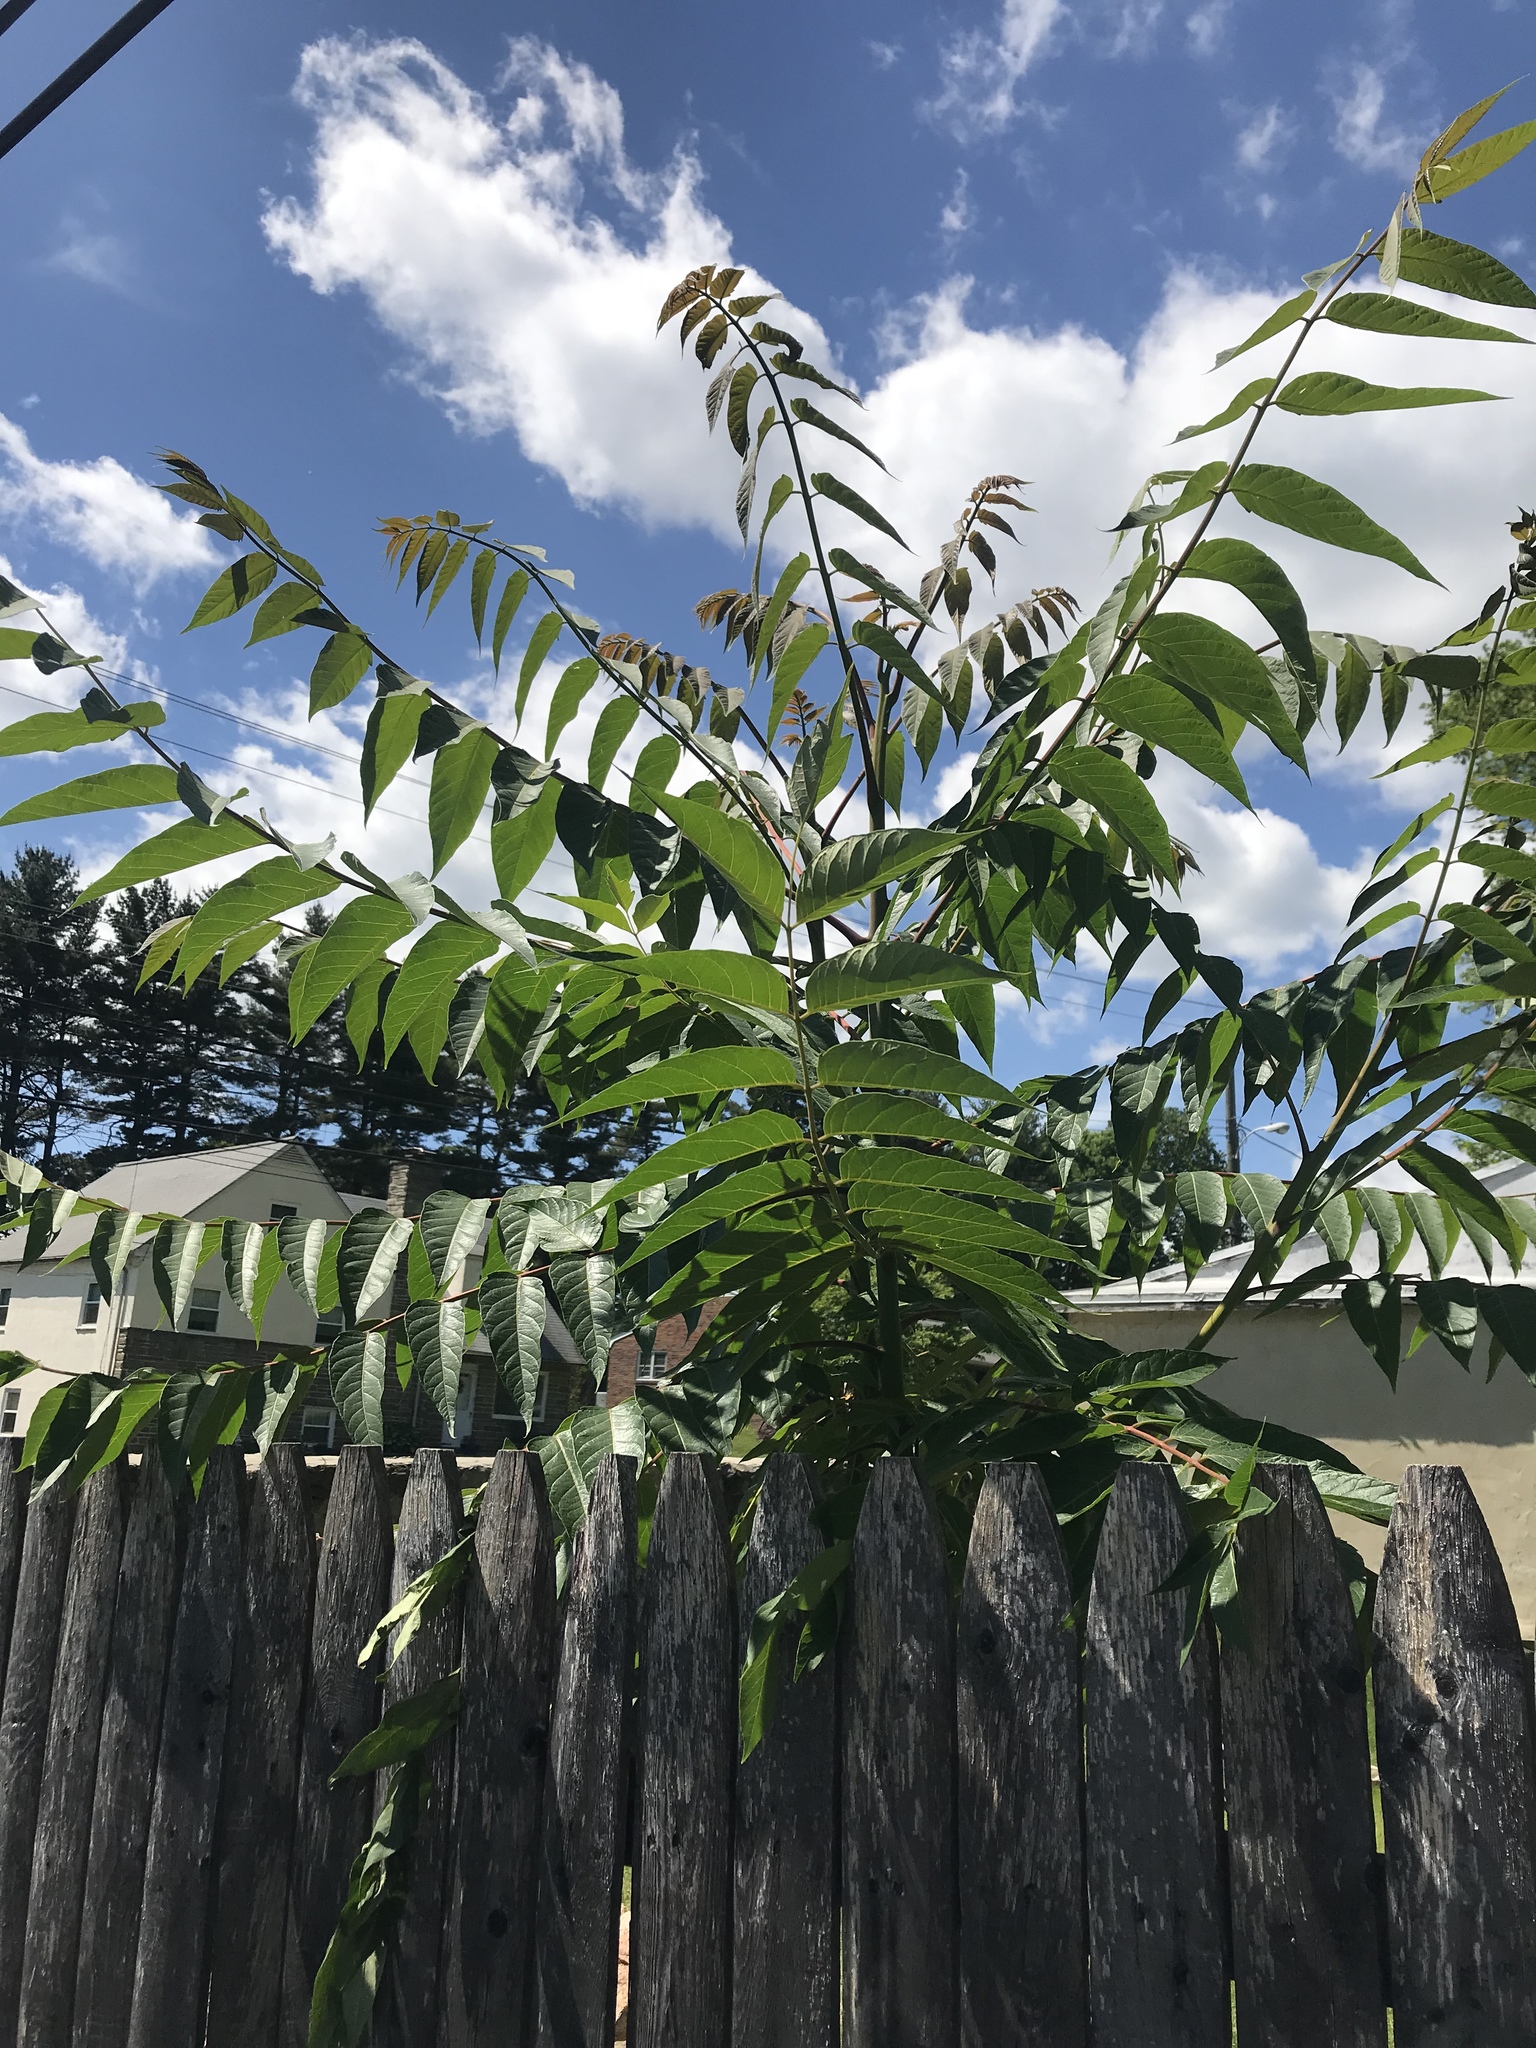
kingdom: Plantae
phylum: Tracheophyta
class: Magnoliopsida
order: Sapindales
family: Simaroubaceae
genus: Ailanthus
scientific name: Ailanthus altissima
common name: Tree-of-heaven
